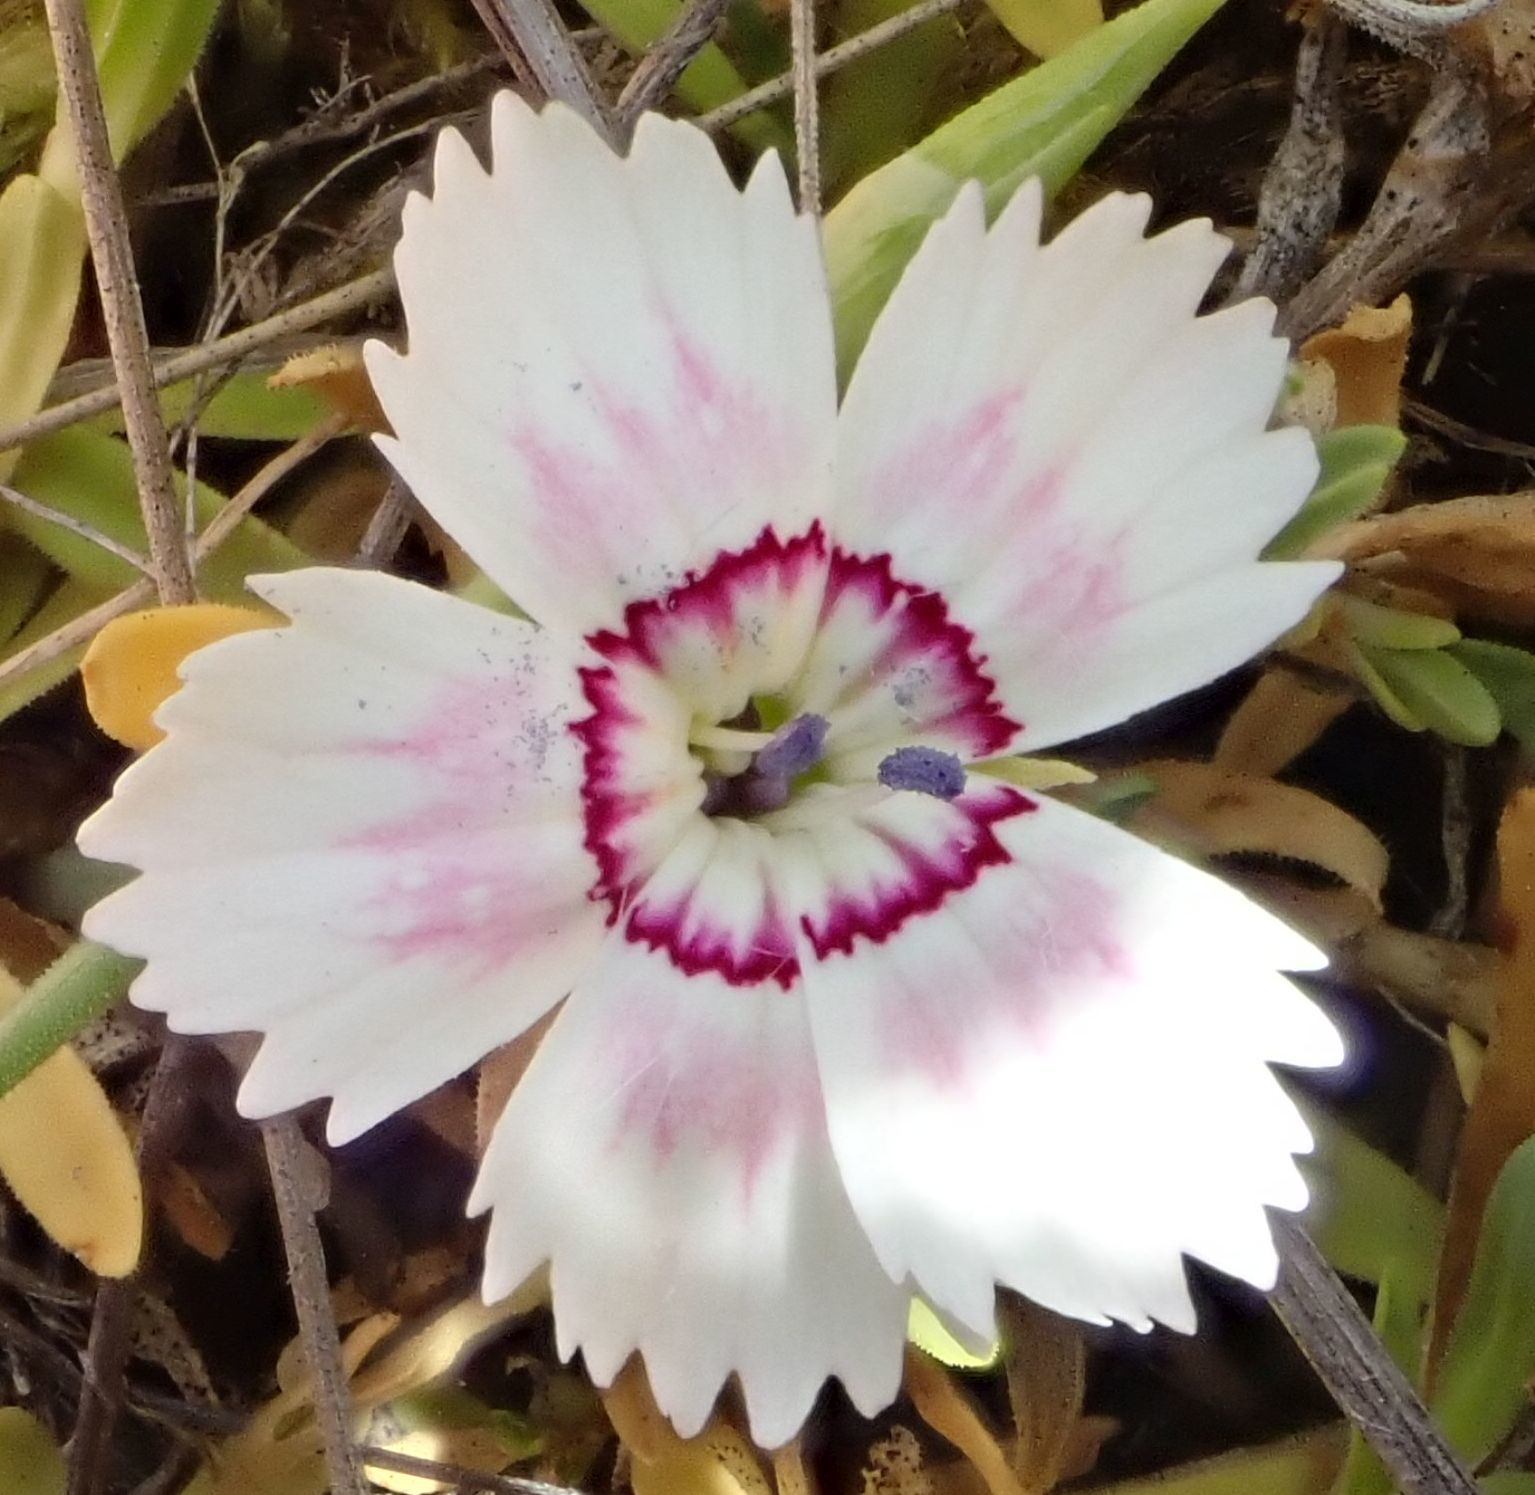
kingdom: Plantae
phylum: Tracheophyta
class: Magnoliopsida
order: Caryophyllales
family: Caryophyllaceae
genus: Dianthus
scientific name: Dianthus deltoides
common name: Maiden pink
